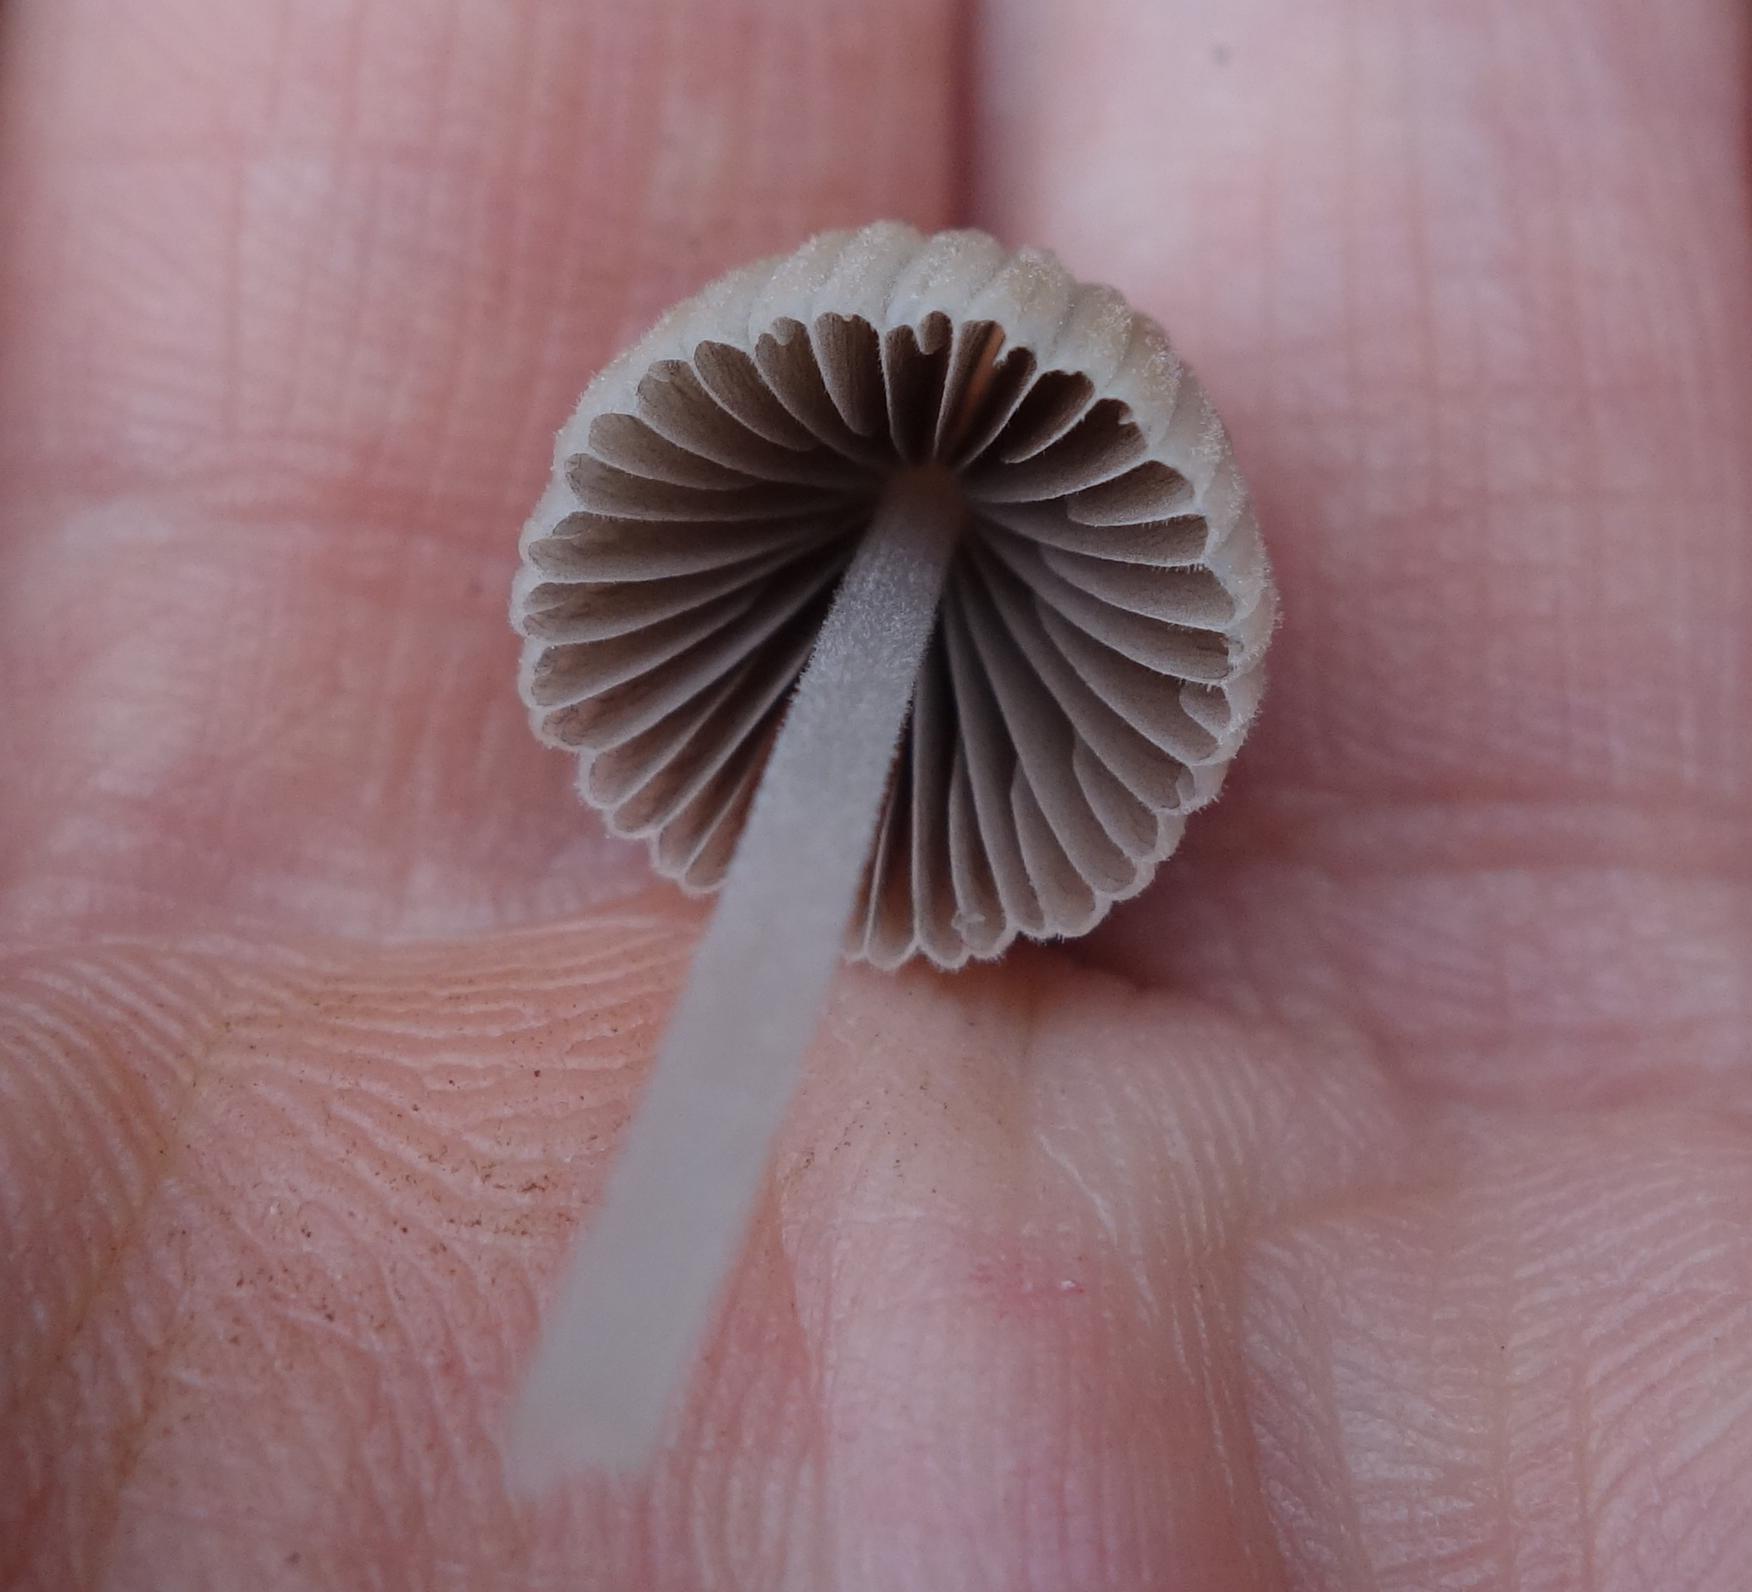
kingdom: Fungi
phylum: Basidiomycota
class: Agaricomycetes
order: Agaricales
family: Psathyrellaceae
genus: Coprinellus
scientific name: Coprinellus disseminatus
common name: Fairies' bonnets
